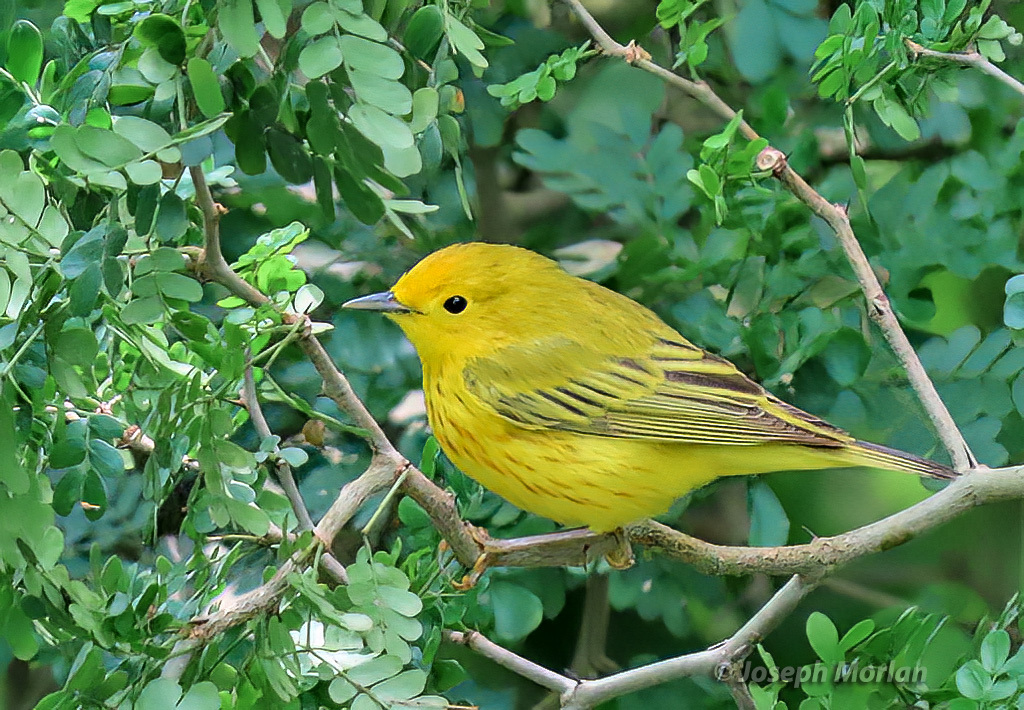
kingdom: Animalia
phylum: Chordata
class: Aves
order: Passeriformes
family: Parulidae
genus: Setophaga
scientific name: Setophaga petechia
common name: Yellow warbler
